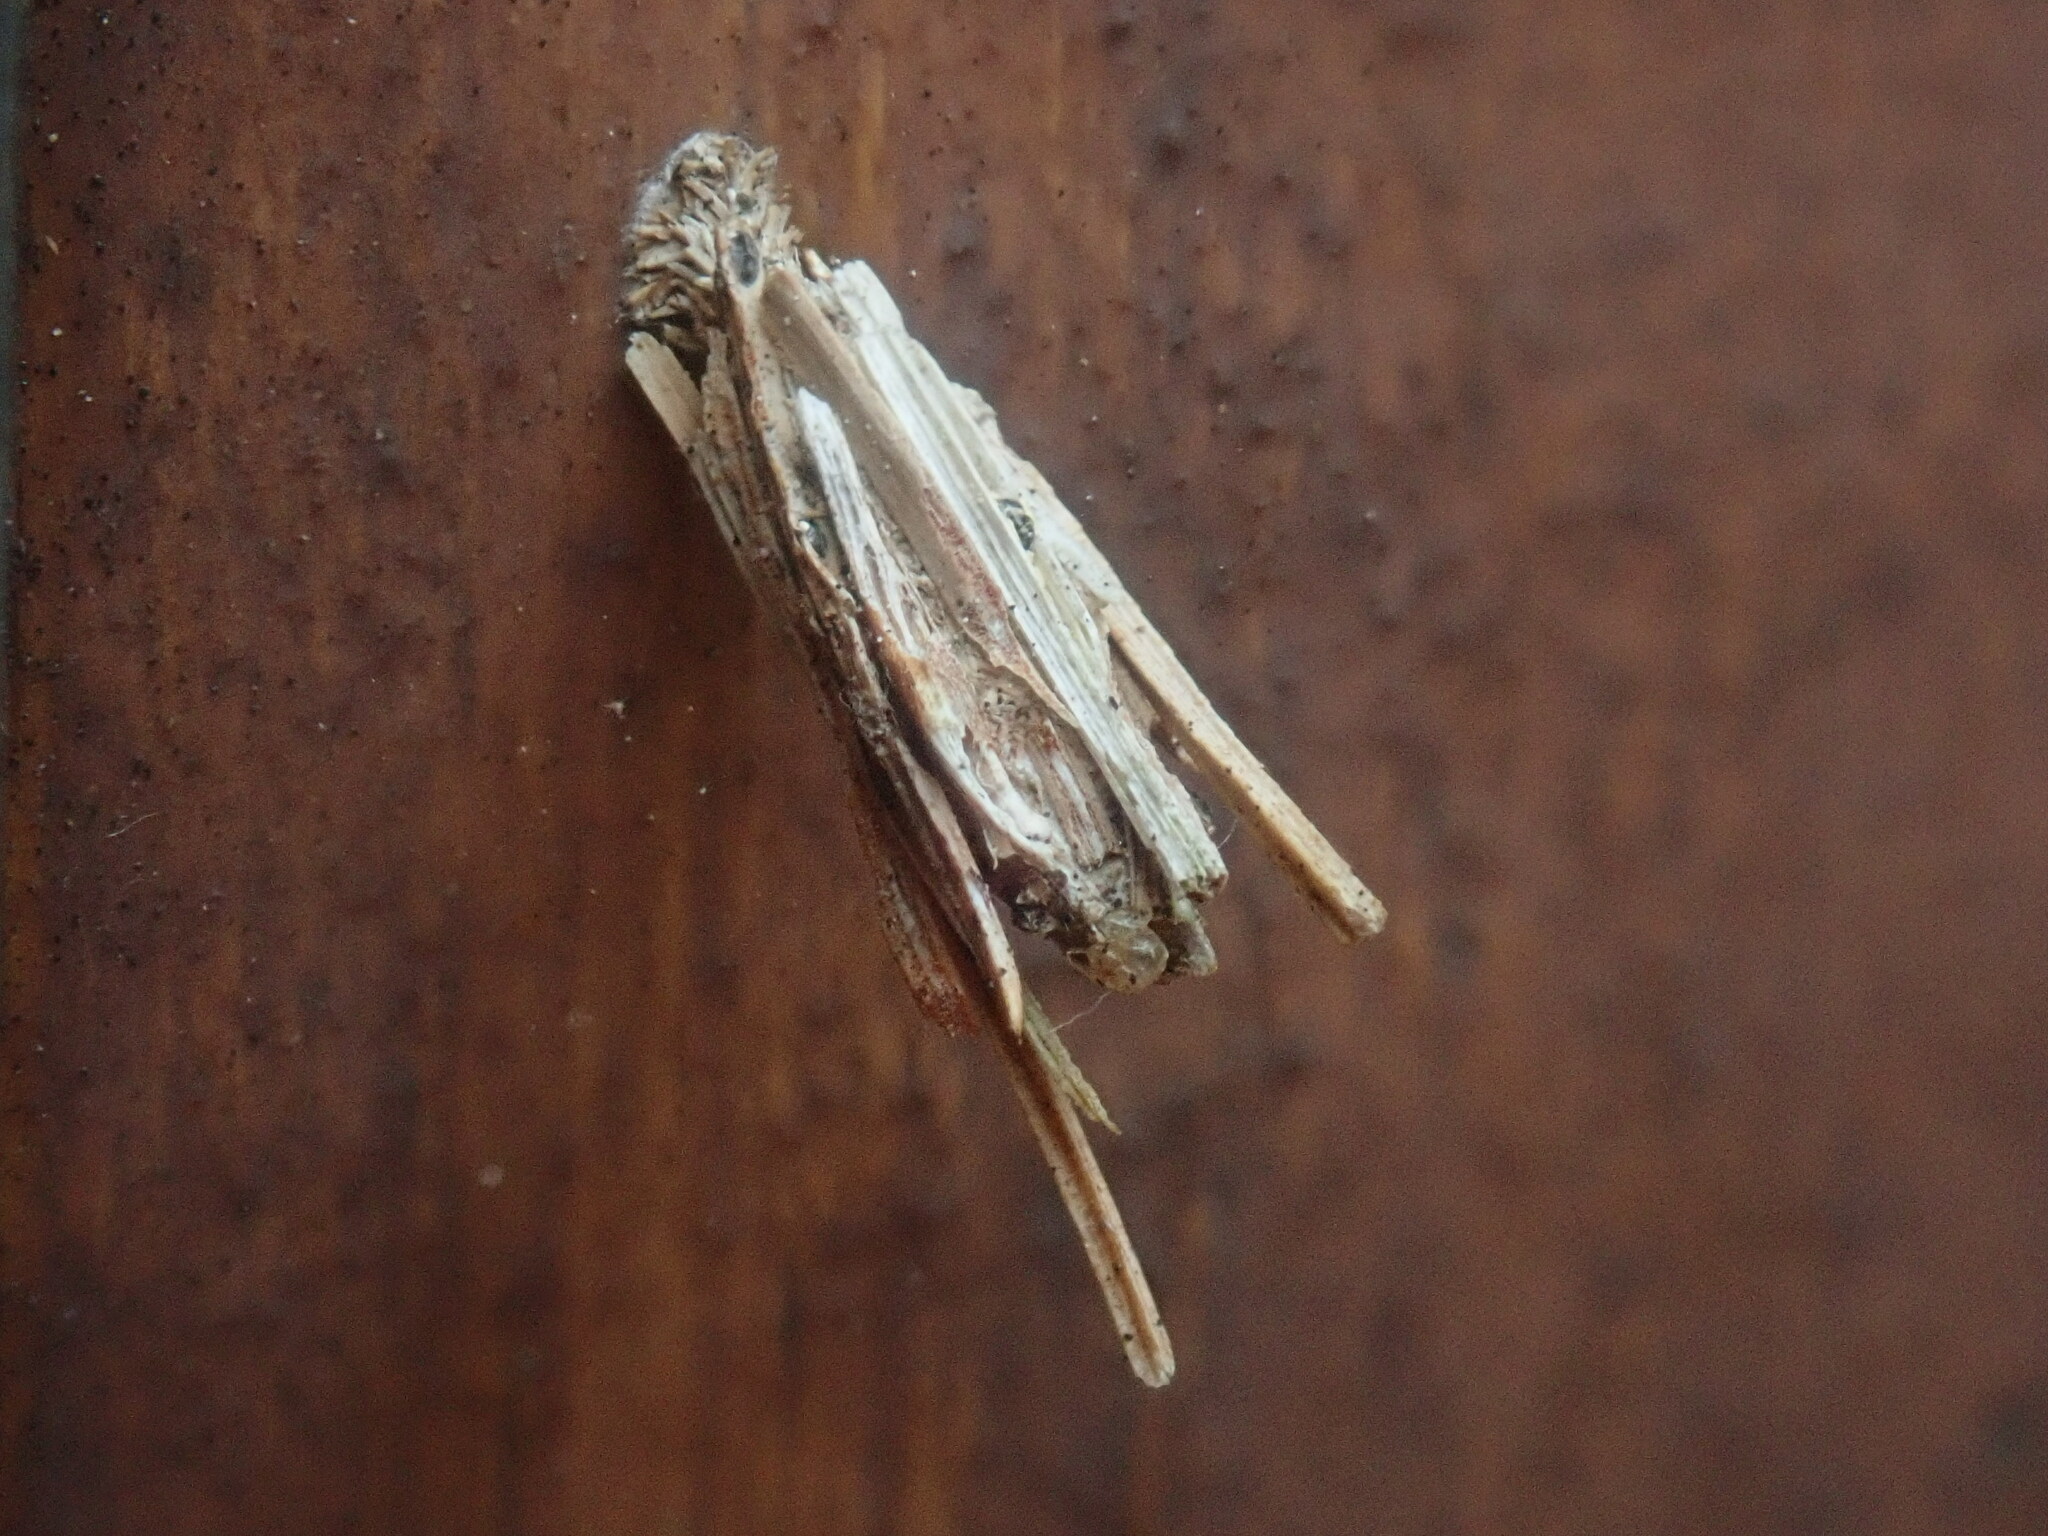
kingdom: Animalia
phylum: Arthropoda
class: Insecta
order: Lepidoptera
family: Psychidae
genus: Psyche
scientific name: Psyche casta
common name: Common sweep
